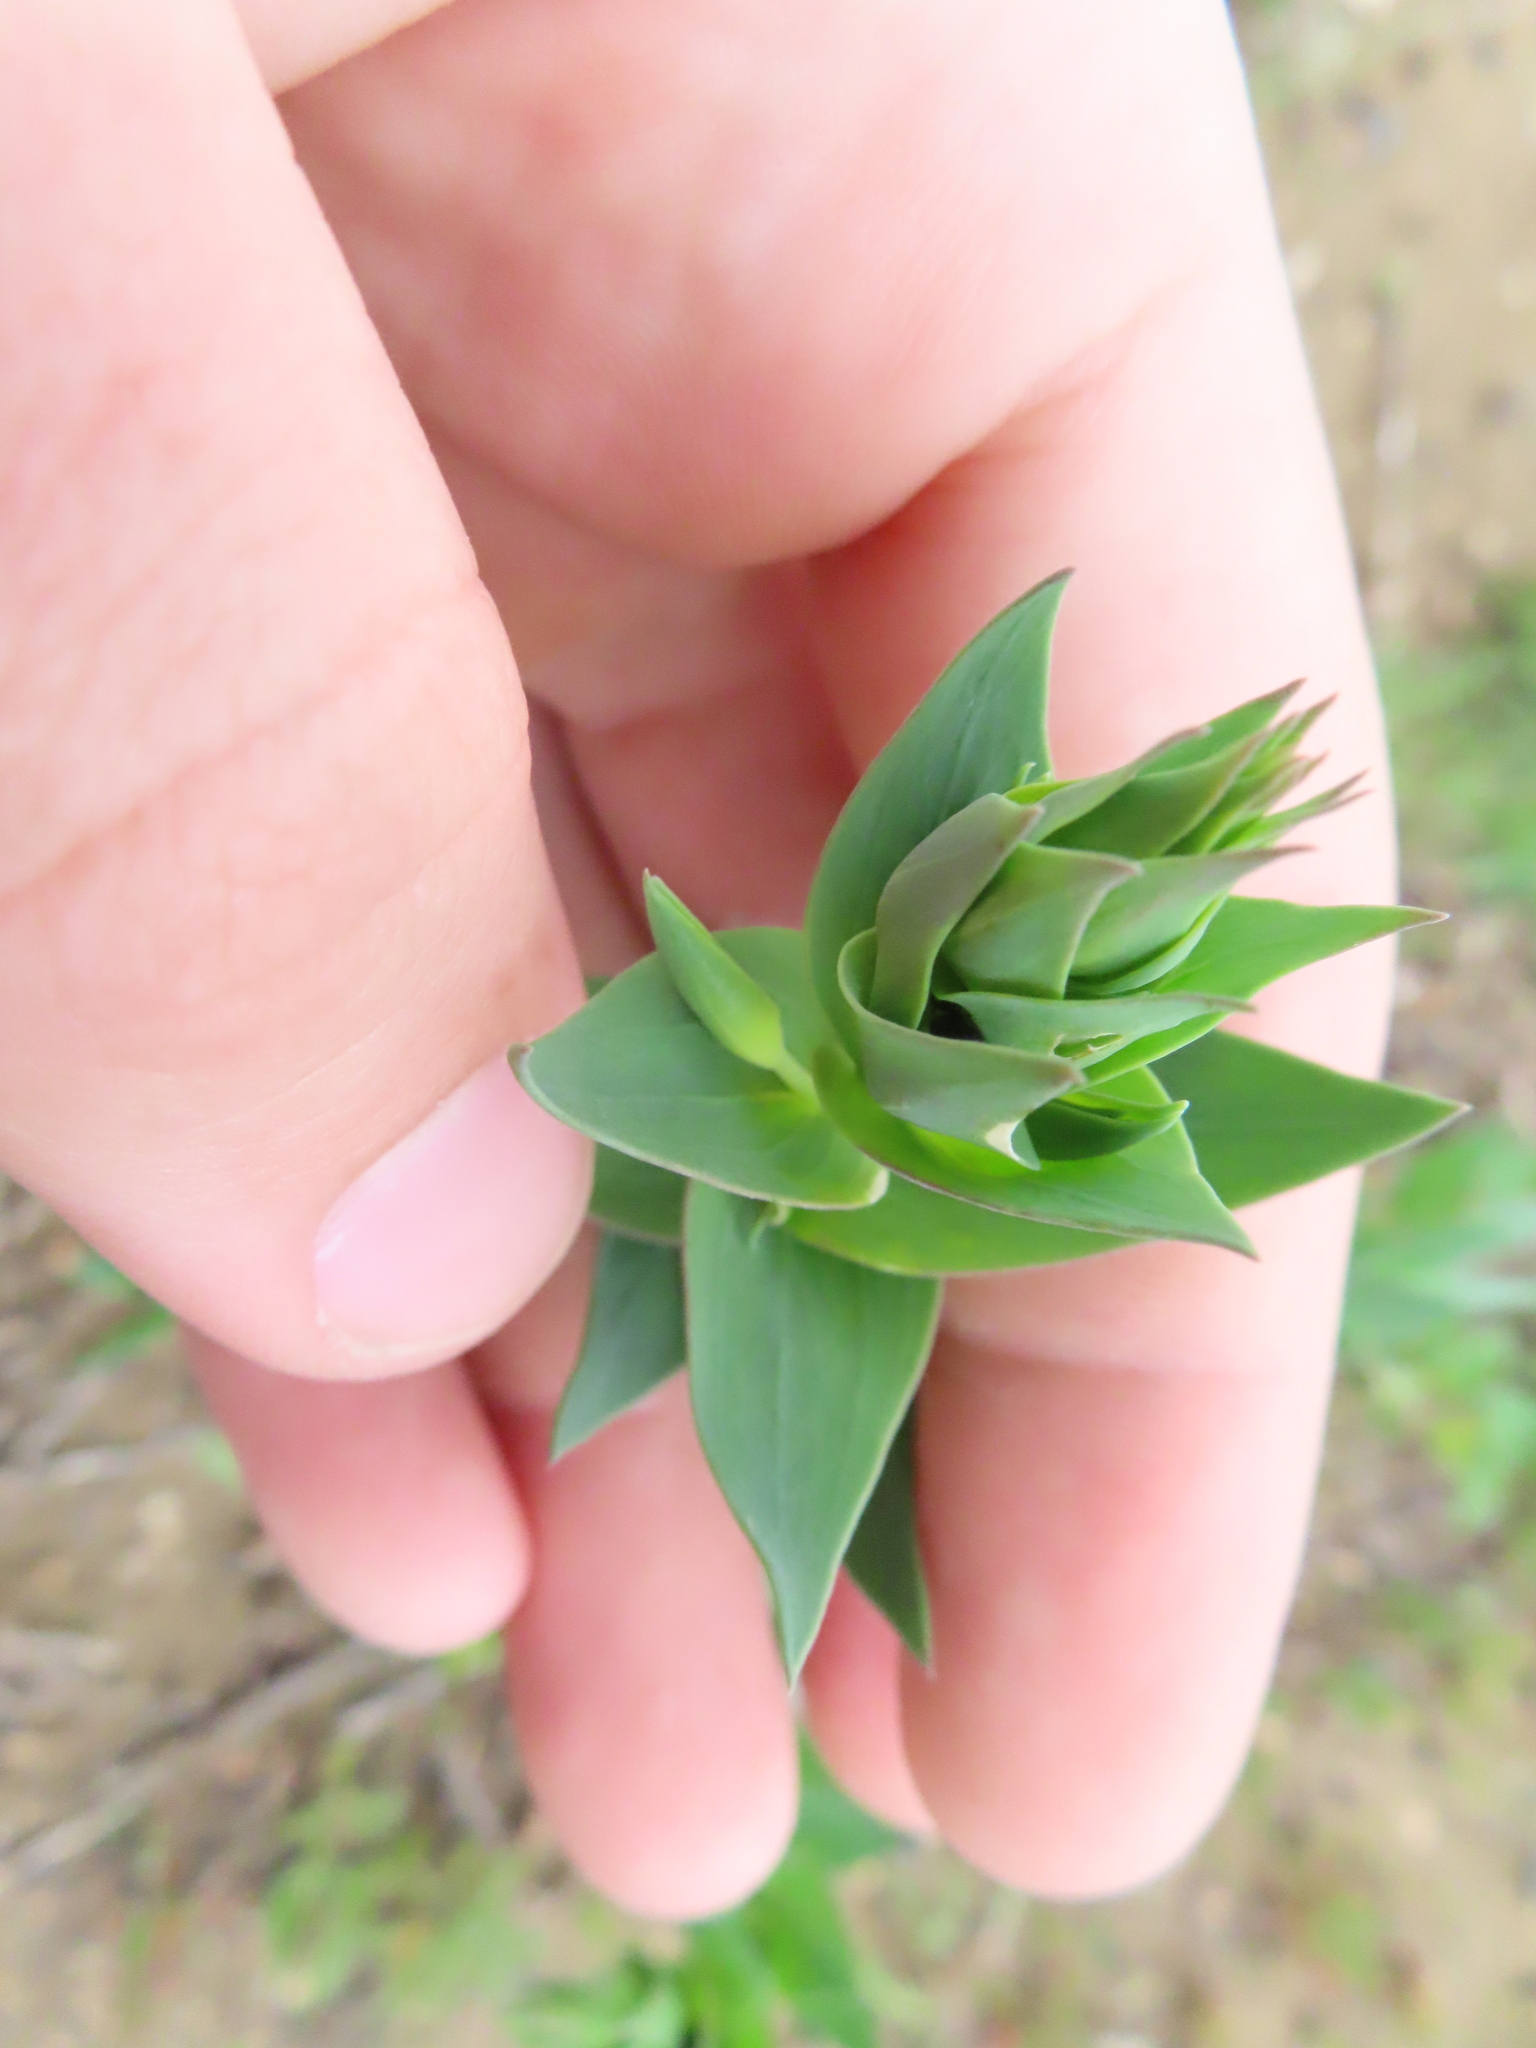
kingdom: Plantae
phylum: Tracheophyta
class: Magnoliopsida
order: Lamiales
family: Plantaginaceae
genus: Linaria
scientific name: Linaria dalmatica
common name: Dalmatian toadflax
